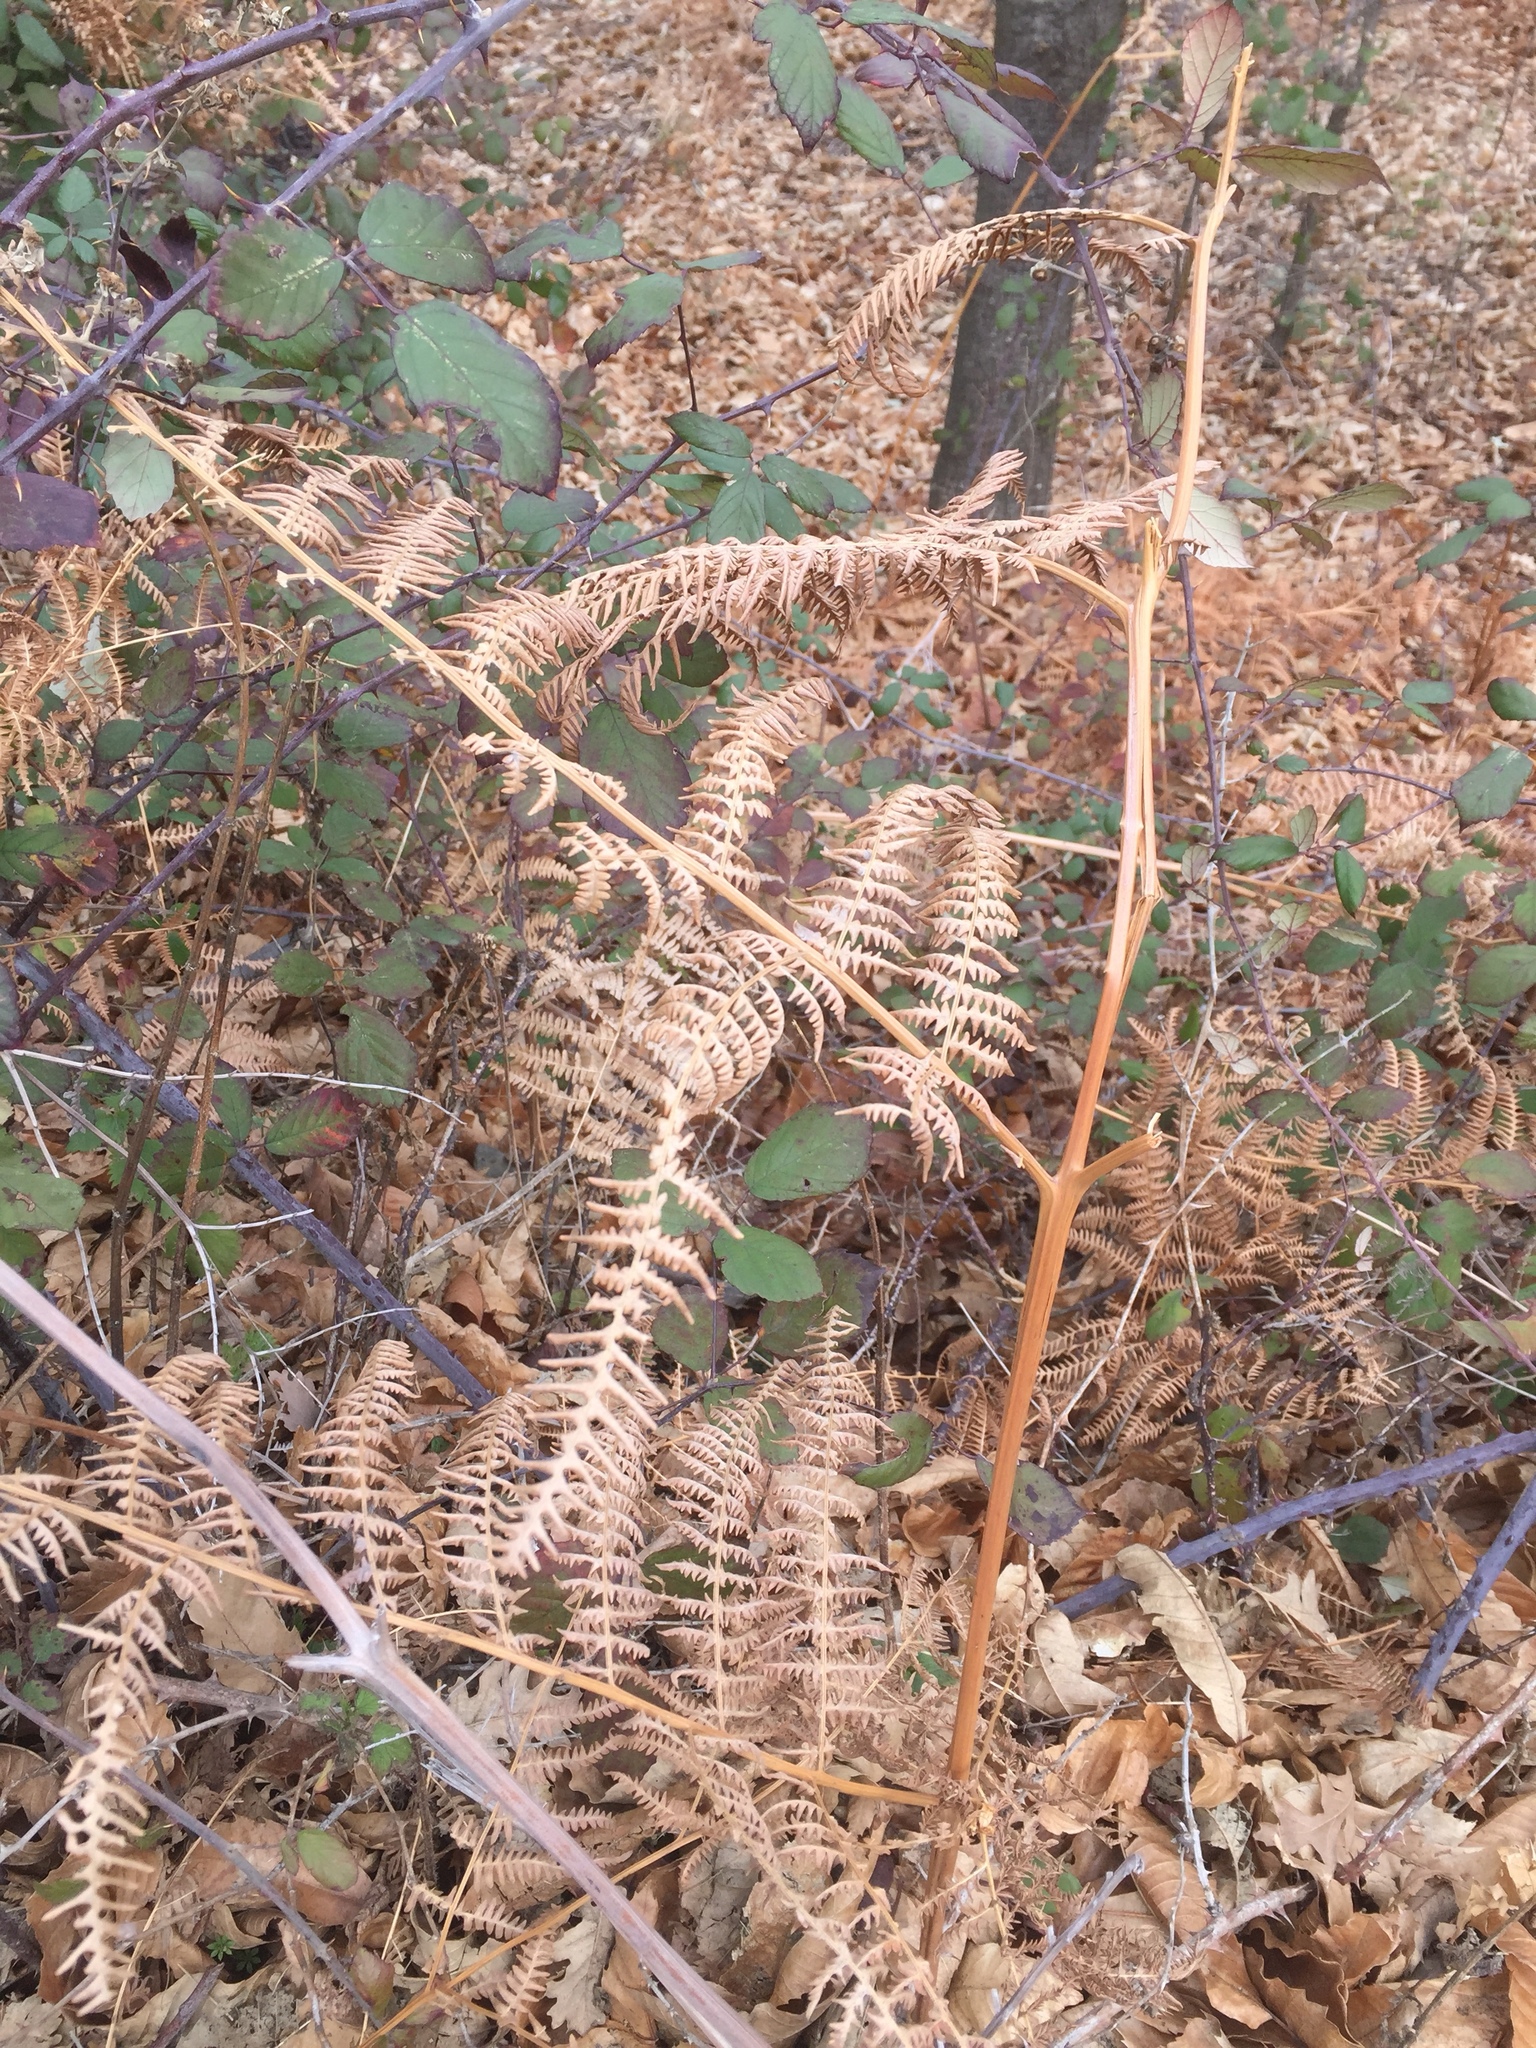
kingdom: Plantae
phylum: Tracheophyta
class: Polypodiopsida
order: Polypodiales
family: Dennstaedtiaceae
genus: Pteridium
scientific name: Pteridium aquilinum
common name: Bracken
